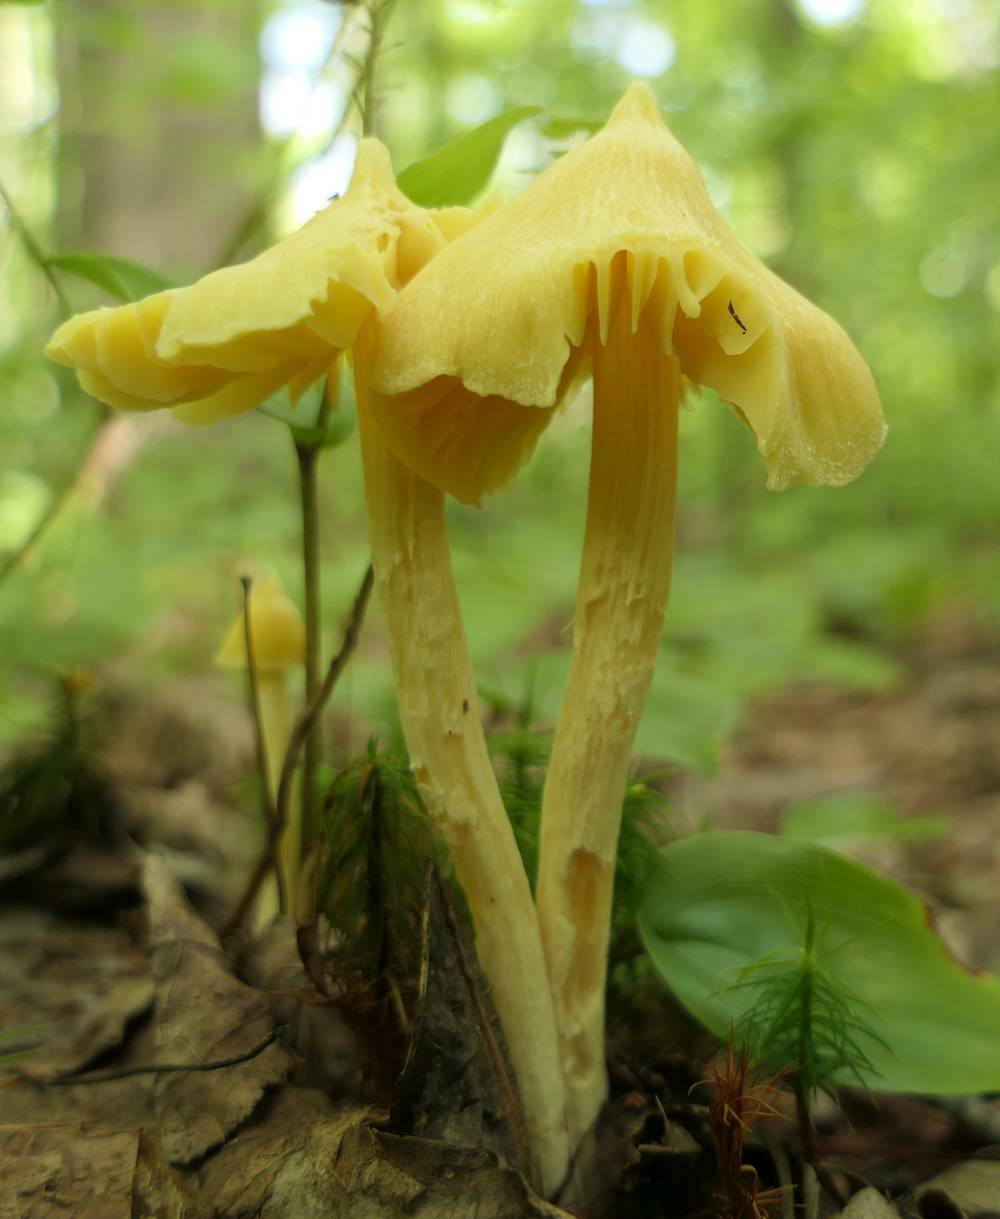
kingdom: Fungi
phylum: Basidiomycota
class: Agaricomycetes
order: Agaricales
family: Entolomataceae
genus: Entoloma
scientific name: Entoloma murrayi
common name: Yellow unicorn entoloma
